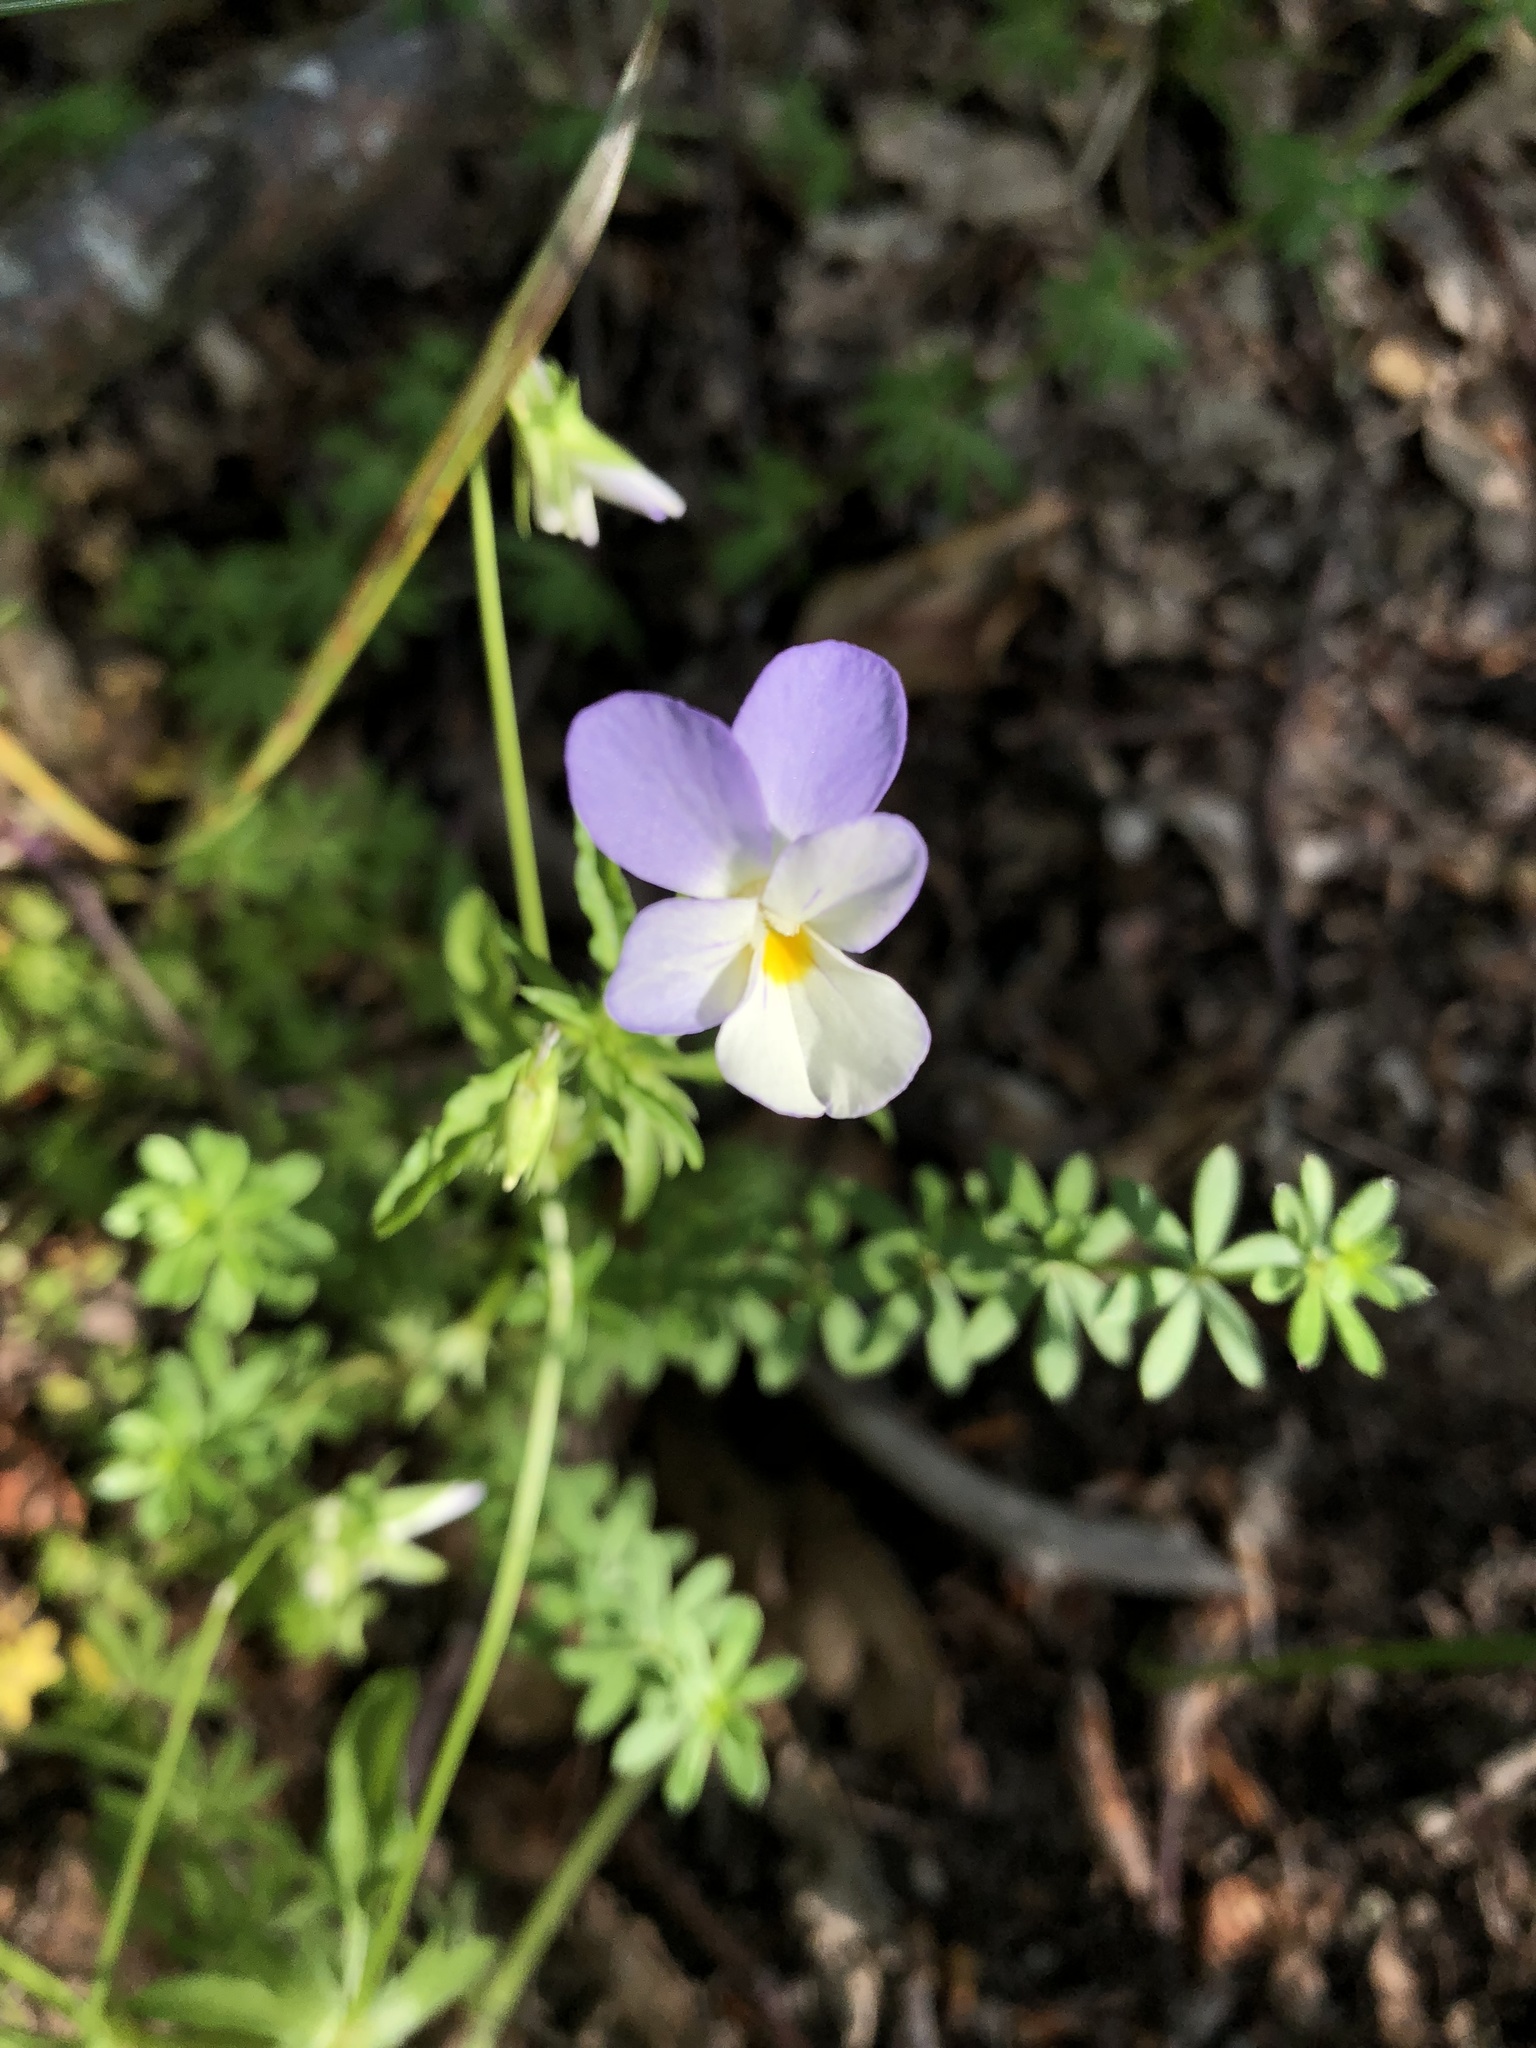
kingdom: Plantae
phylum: Tracheophyta
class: Magnoliopsida
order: Malpighiales
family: Violaceae
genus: Viola
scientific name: Viola tricolor
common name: Pansy
